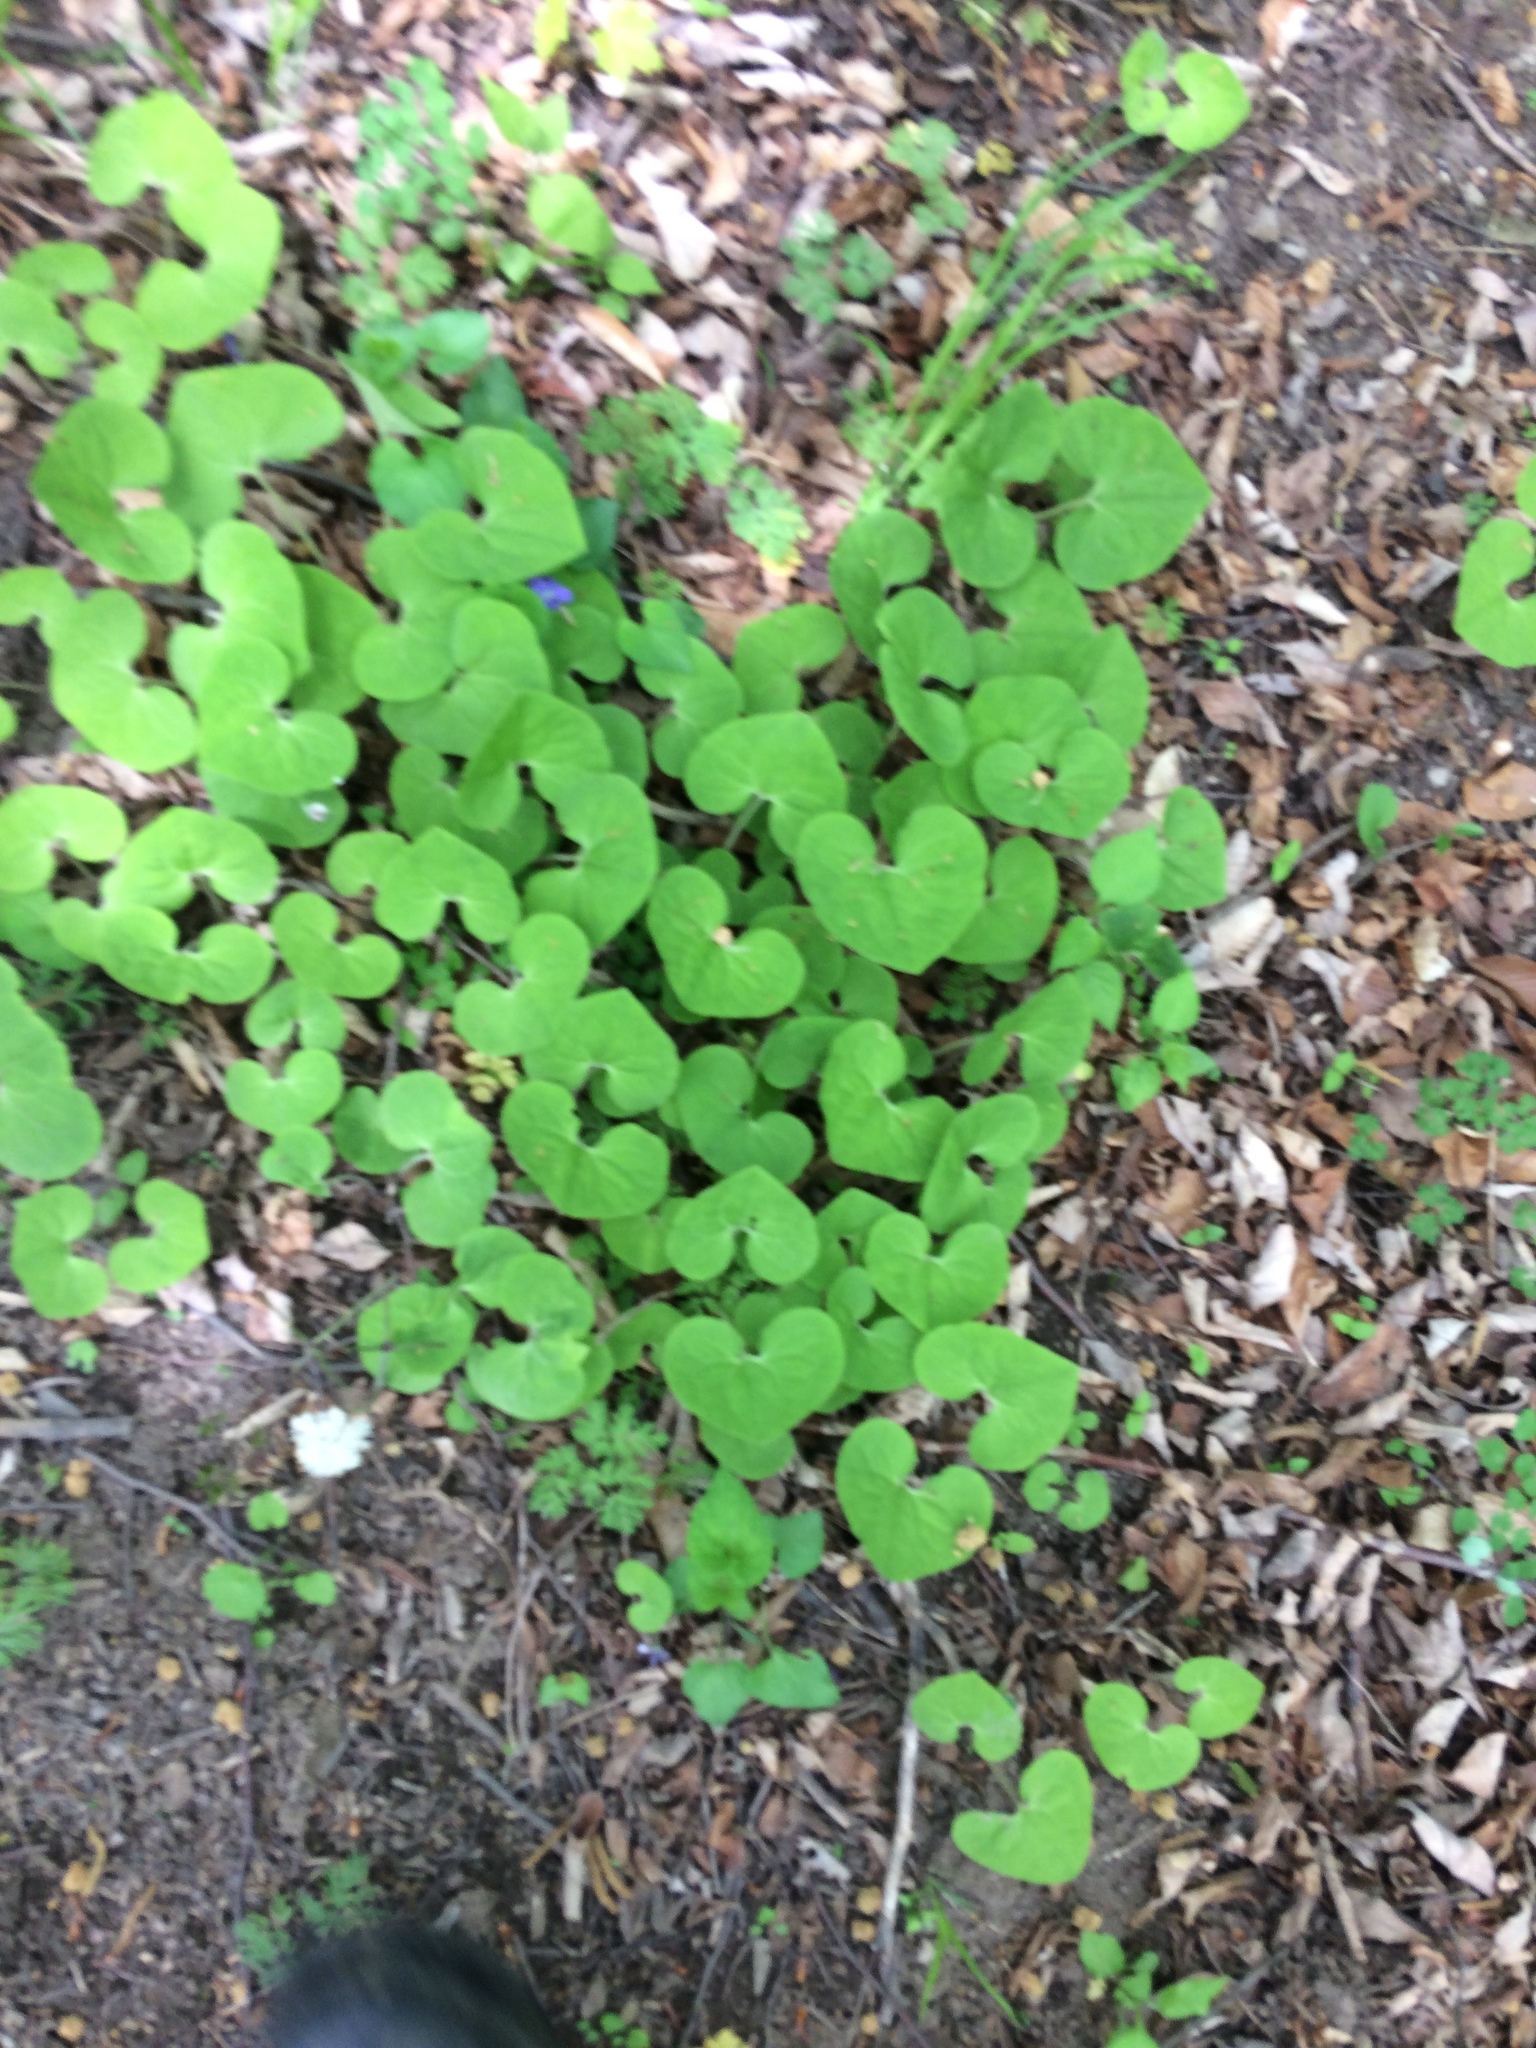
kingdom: Plantae
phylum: Tracheophyta
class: Magnoliopsida
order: Piperales
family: Aristolochiaceae
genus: Asarum
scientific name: Asarum canadense
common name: Wild ginger
